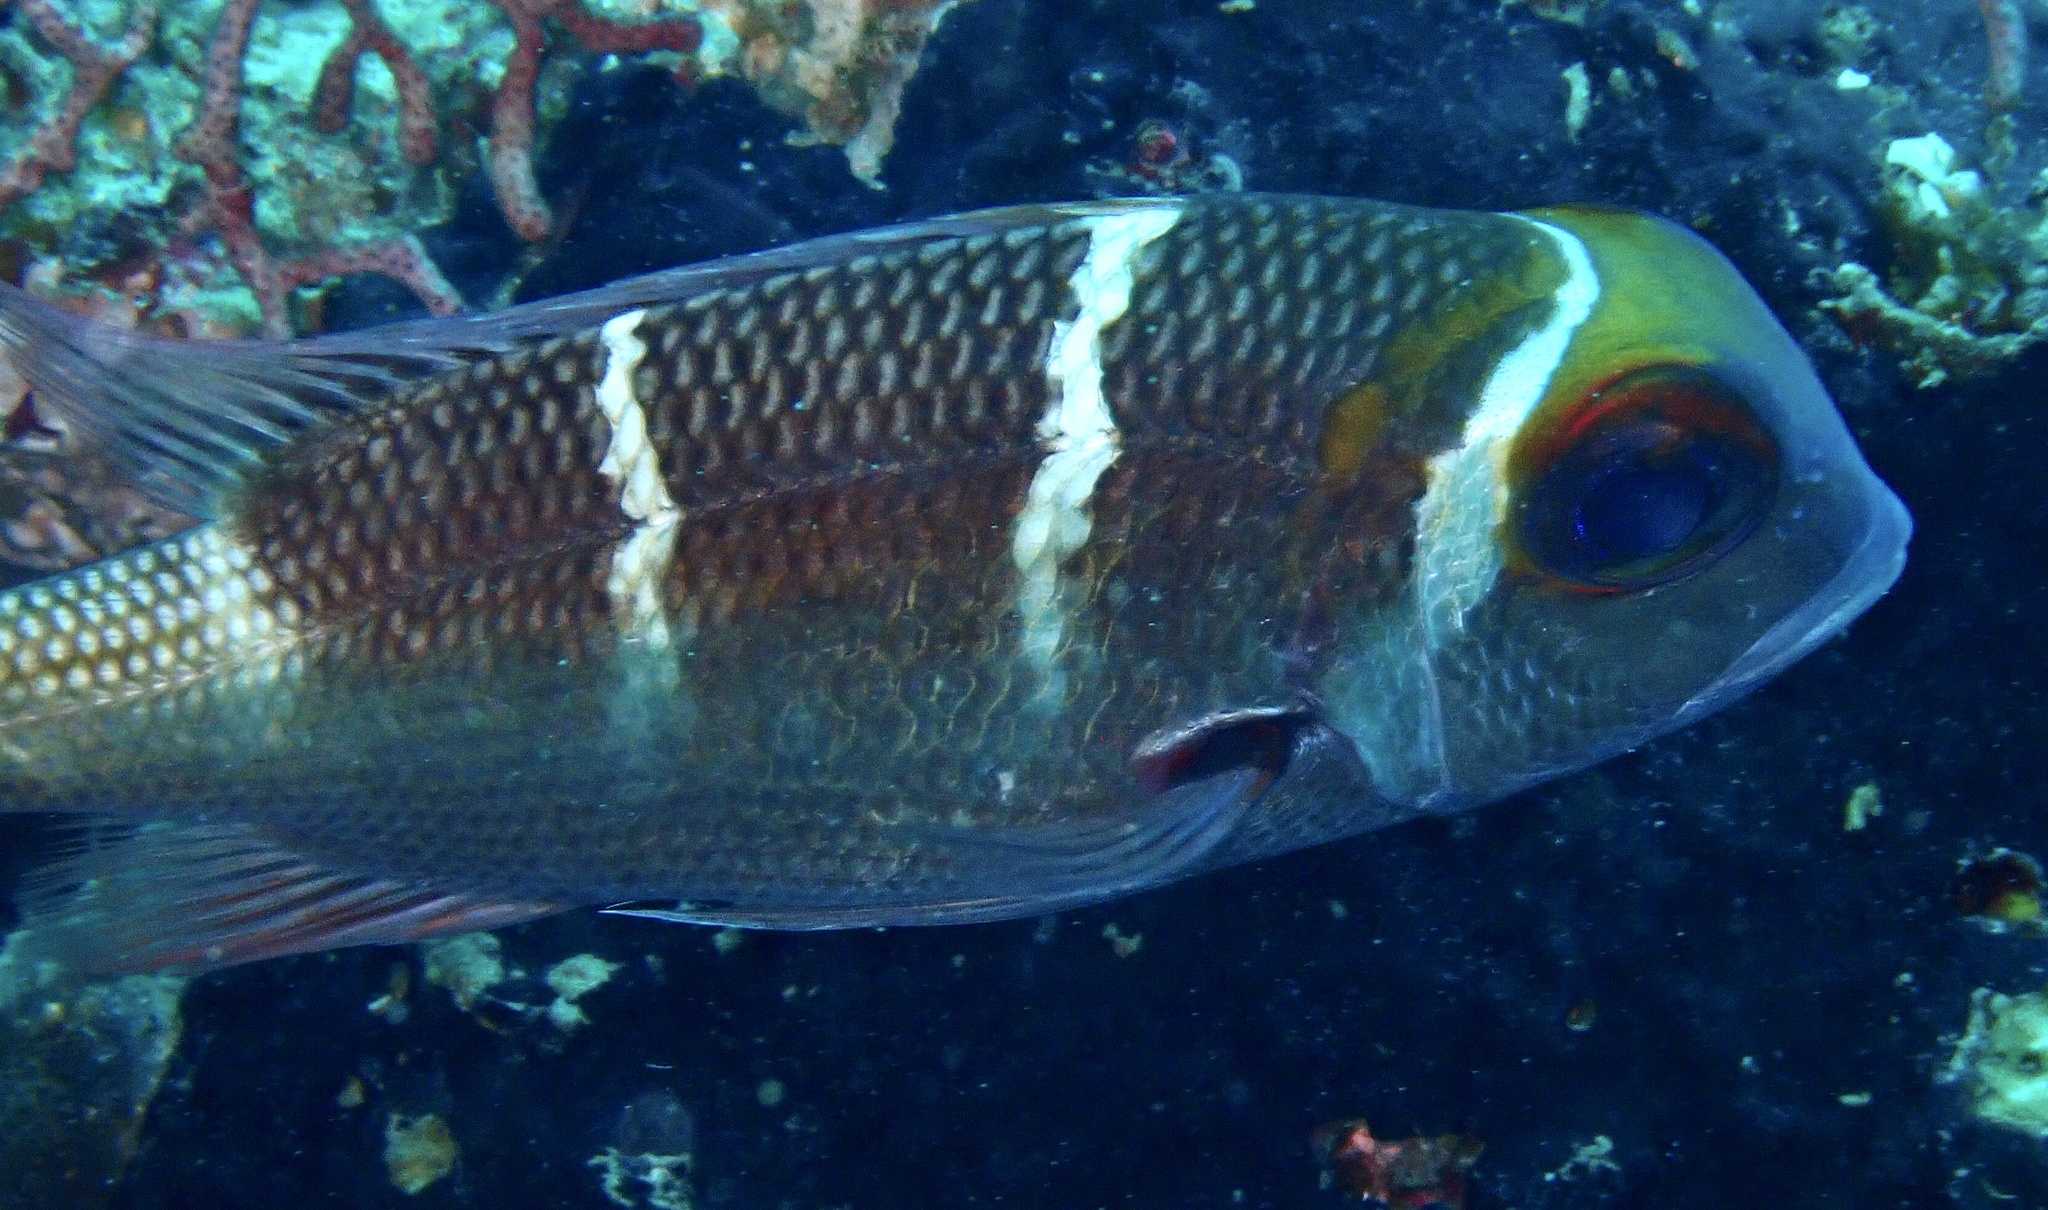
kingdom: Animalia
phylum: Chordata
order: Perciformes
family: Lethrinidae
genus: Monotaxis
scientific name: Monotaxis heterodon
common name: Redfin emperor
